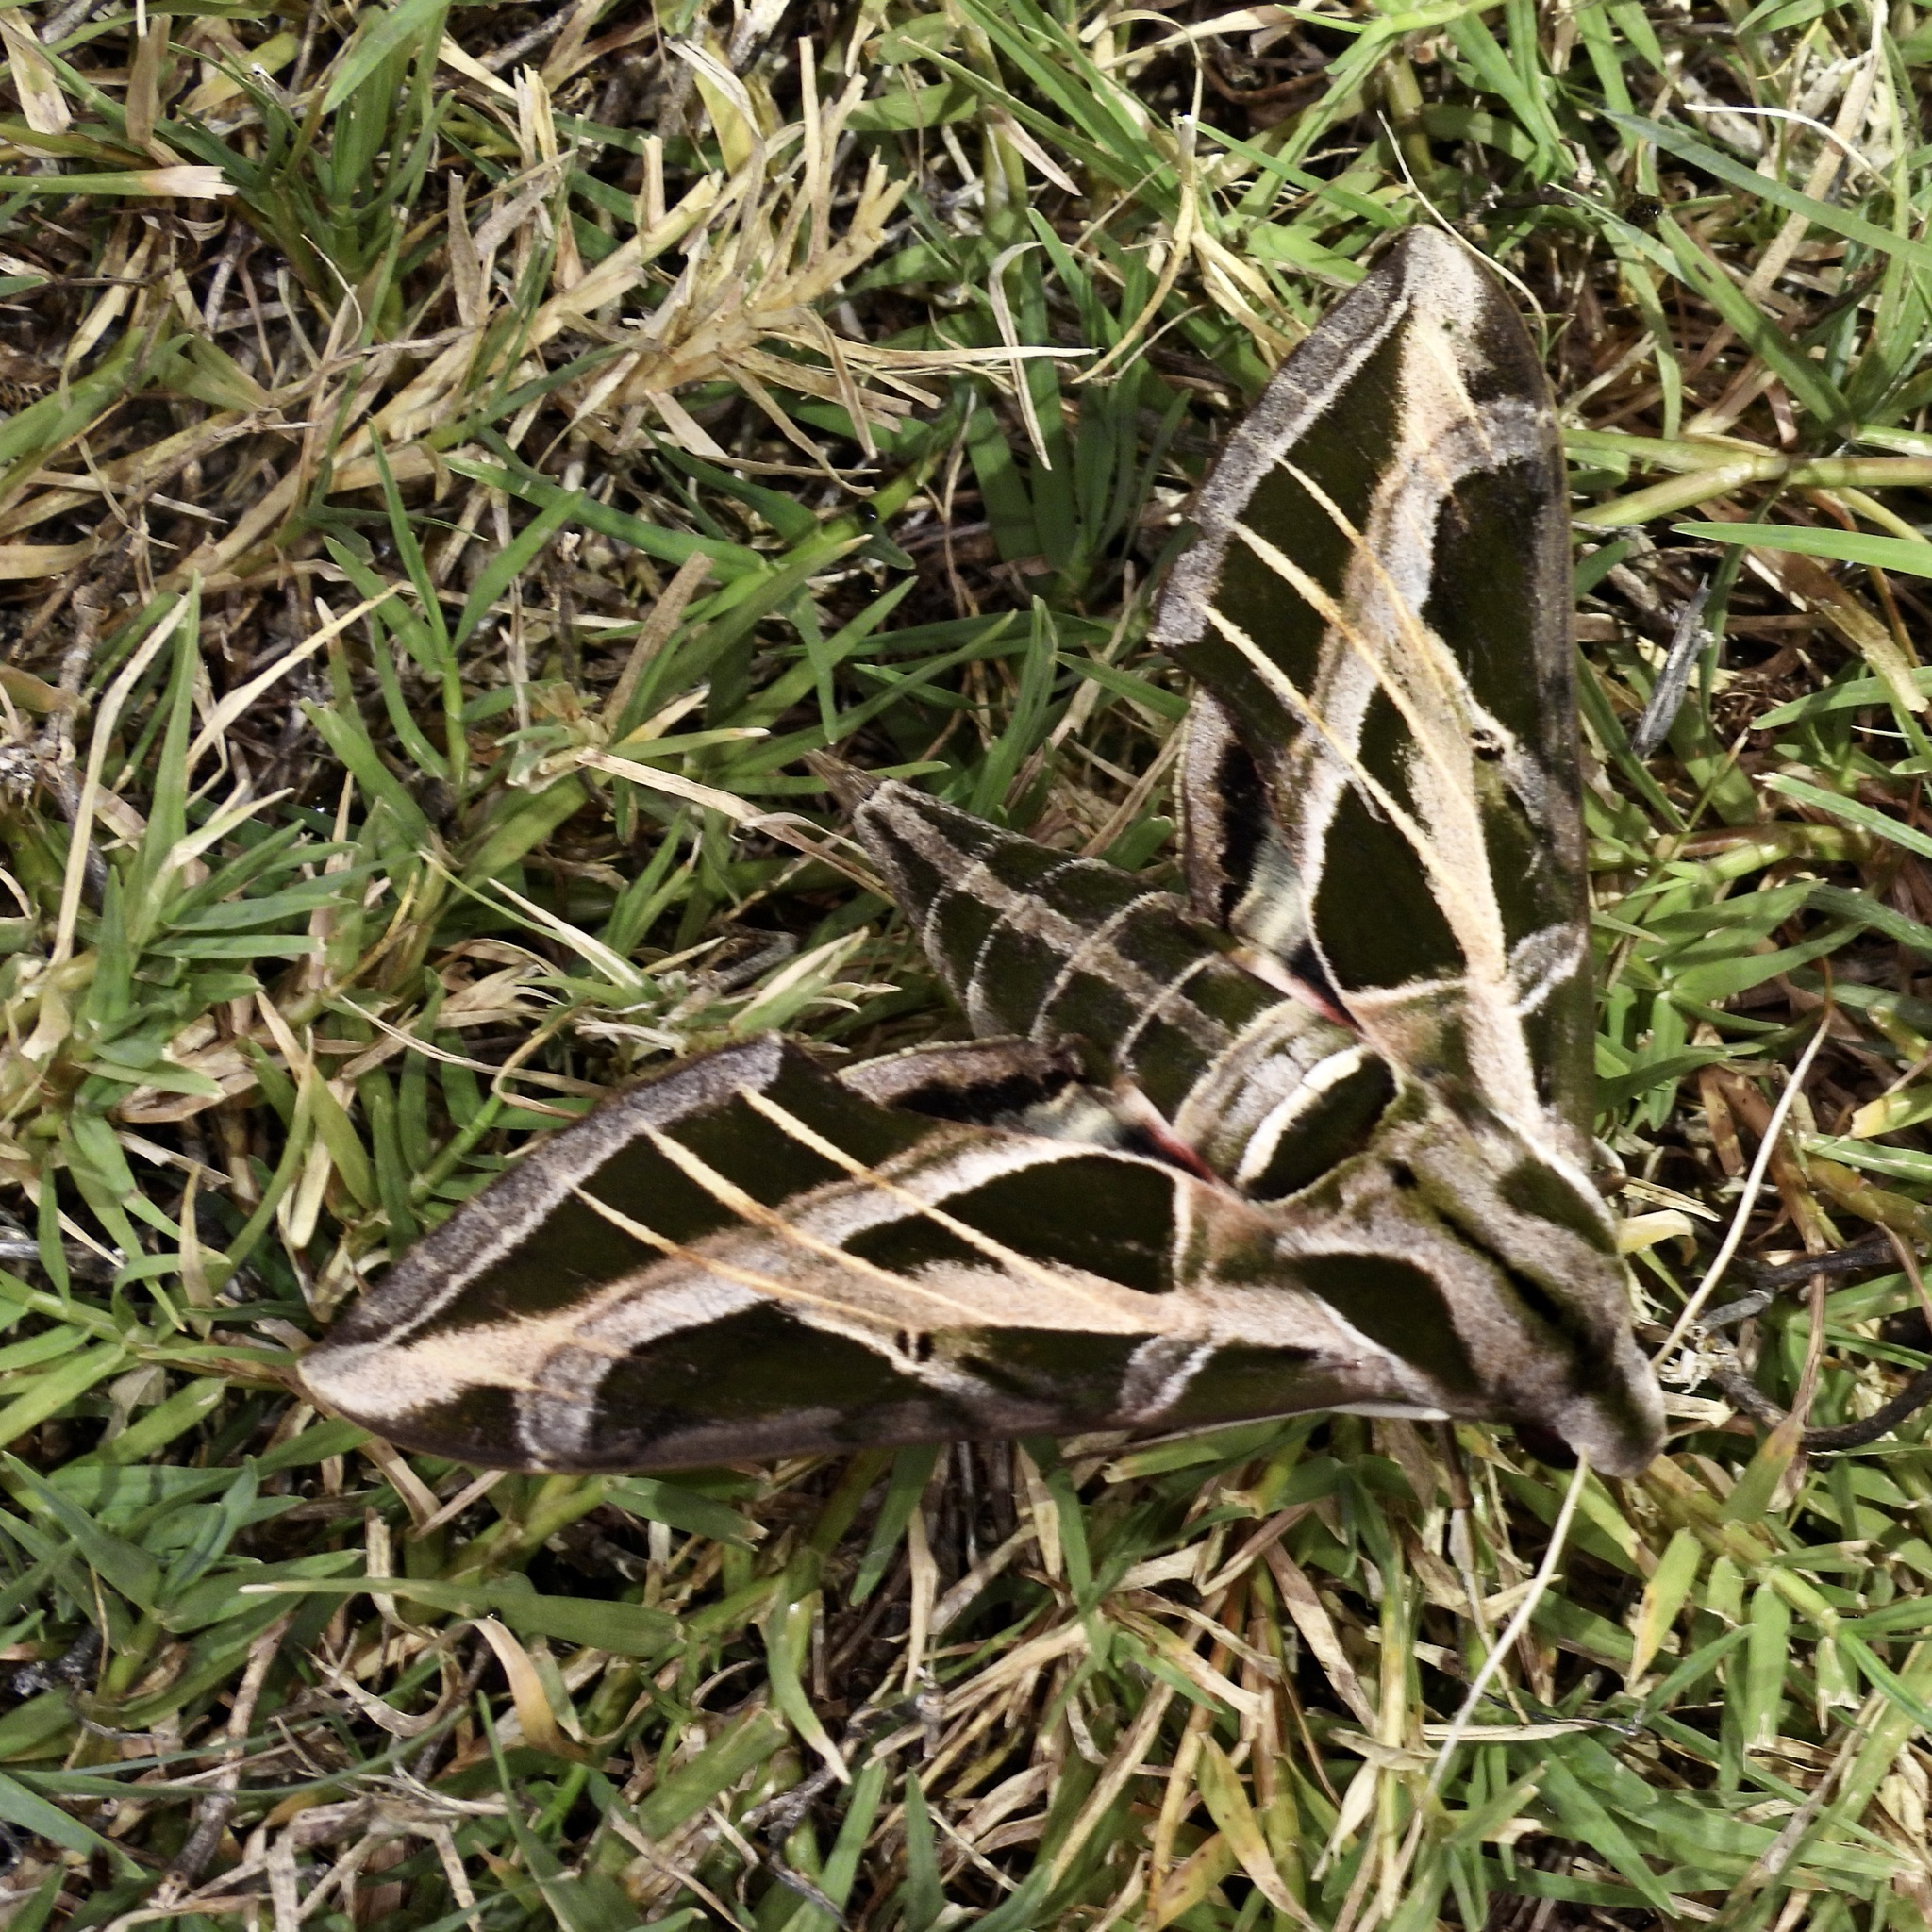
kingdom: Animalia
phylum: Arthropoda
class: Insecta
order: Lepidoptera
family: Sphingidae
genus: Eumorpha
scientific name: Eumorpha vitis
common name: Vine sphinx
